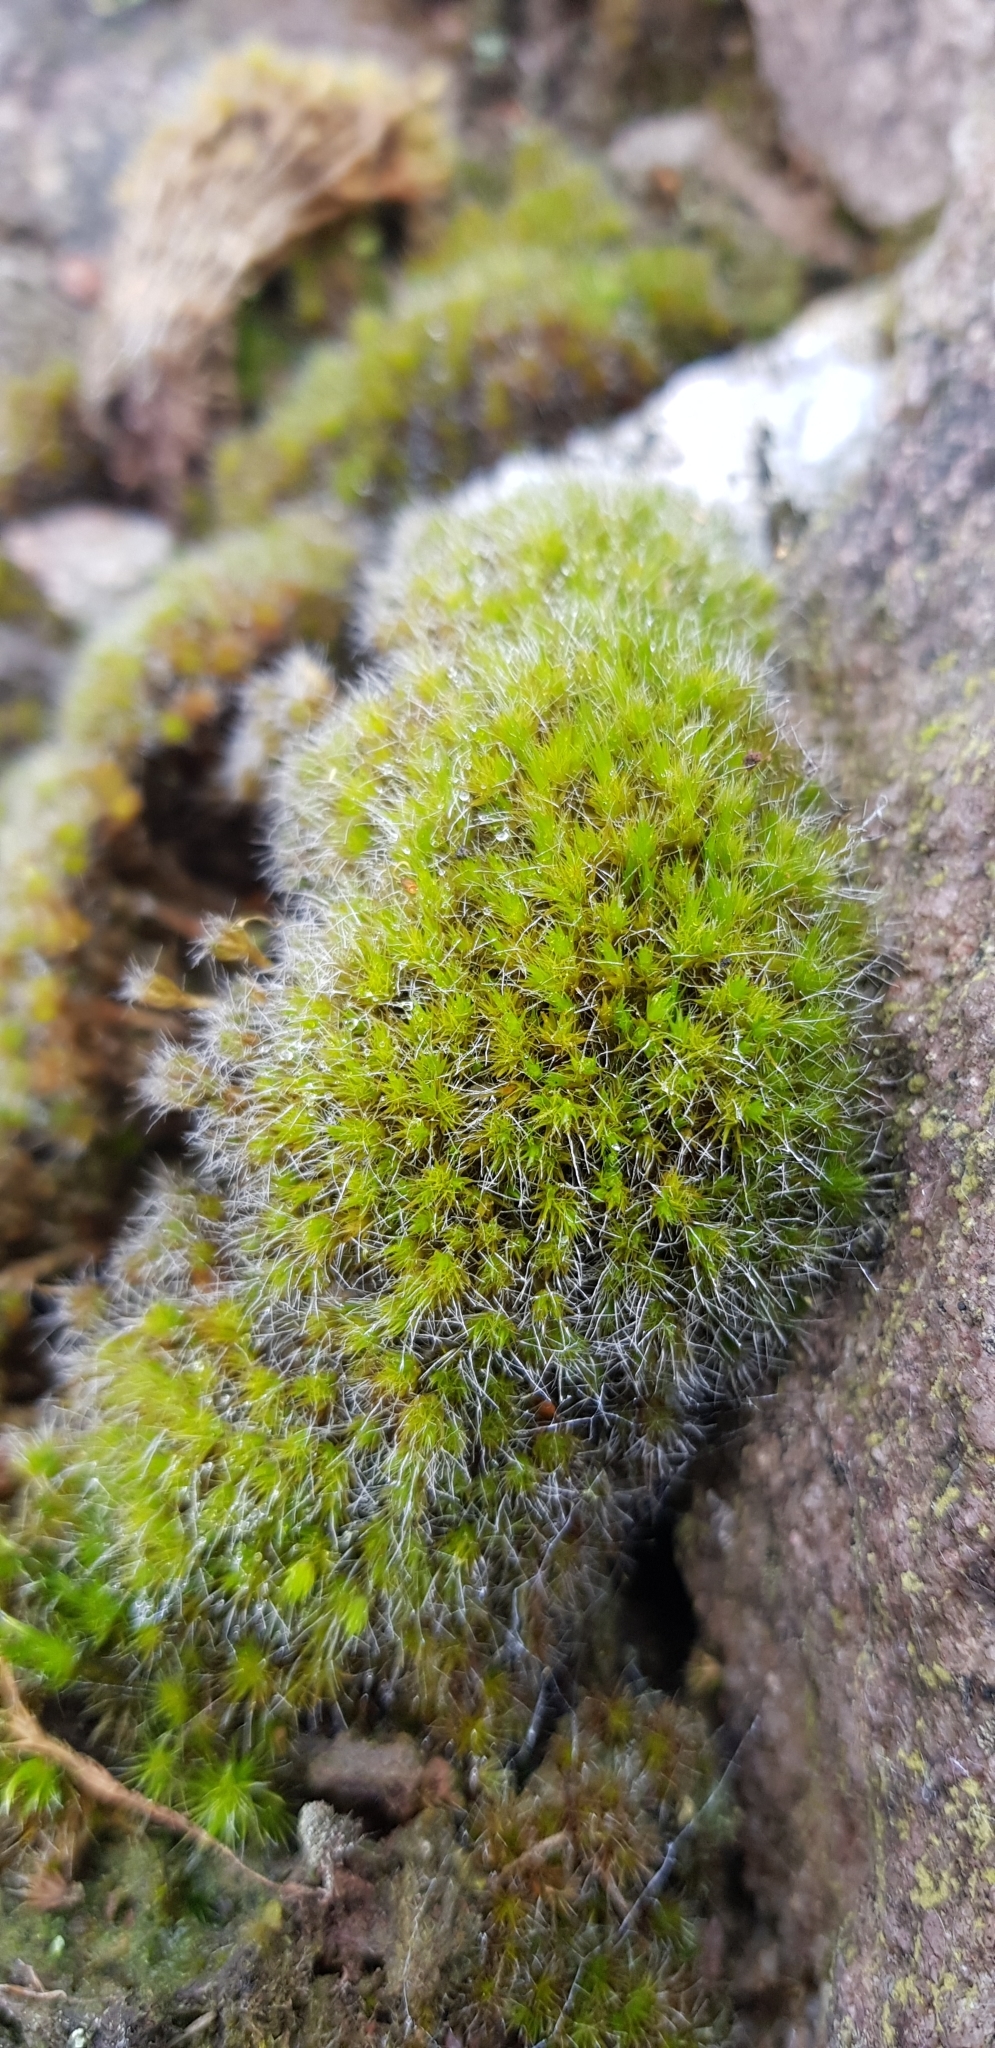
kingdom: Plantae
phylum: Bryophyta
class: Bryopsida
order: Dicranales
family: Leucobryaceae
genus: Campylopus
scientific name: Campylopus introflexus
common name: Heath star moss
